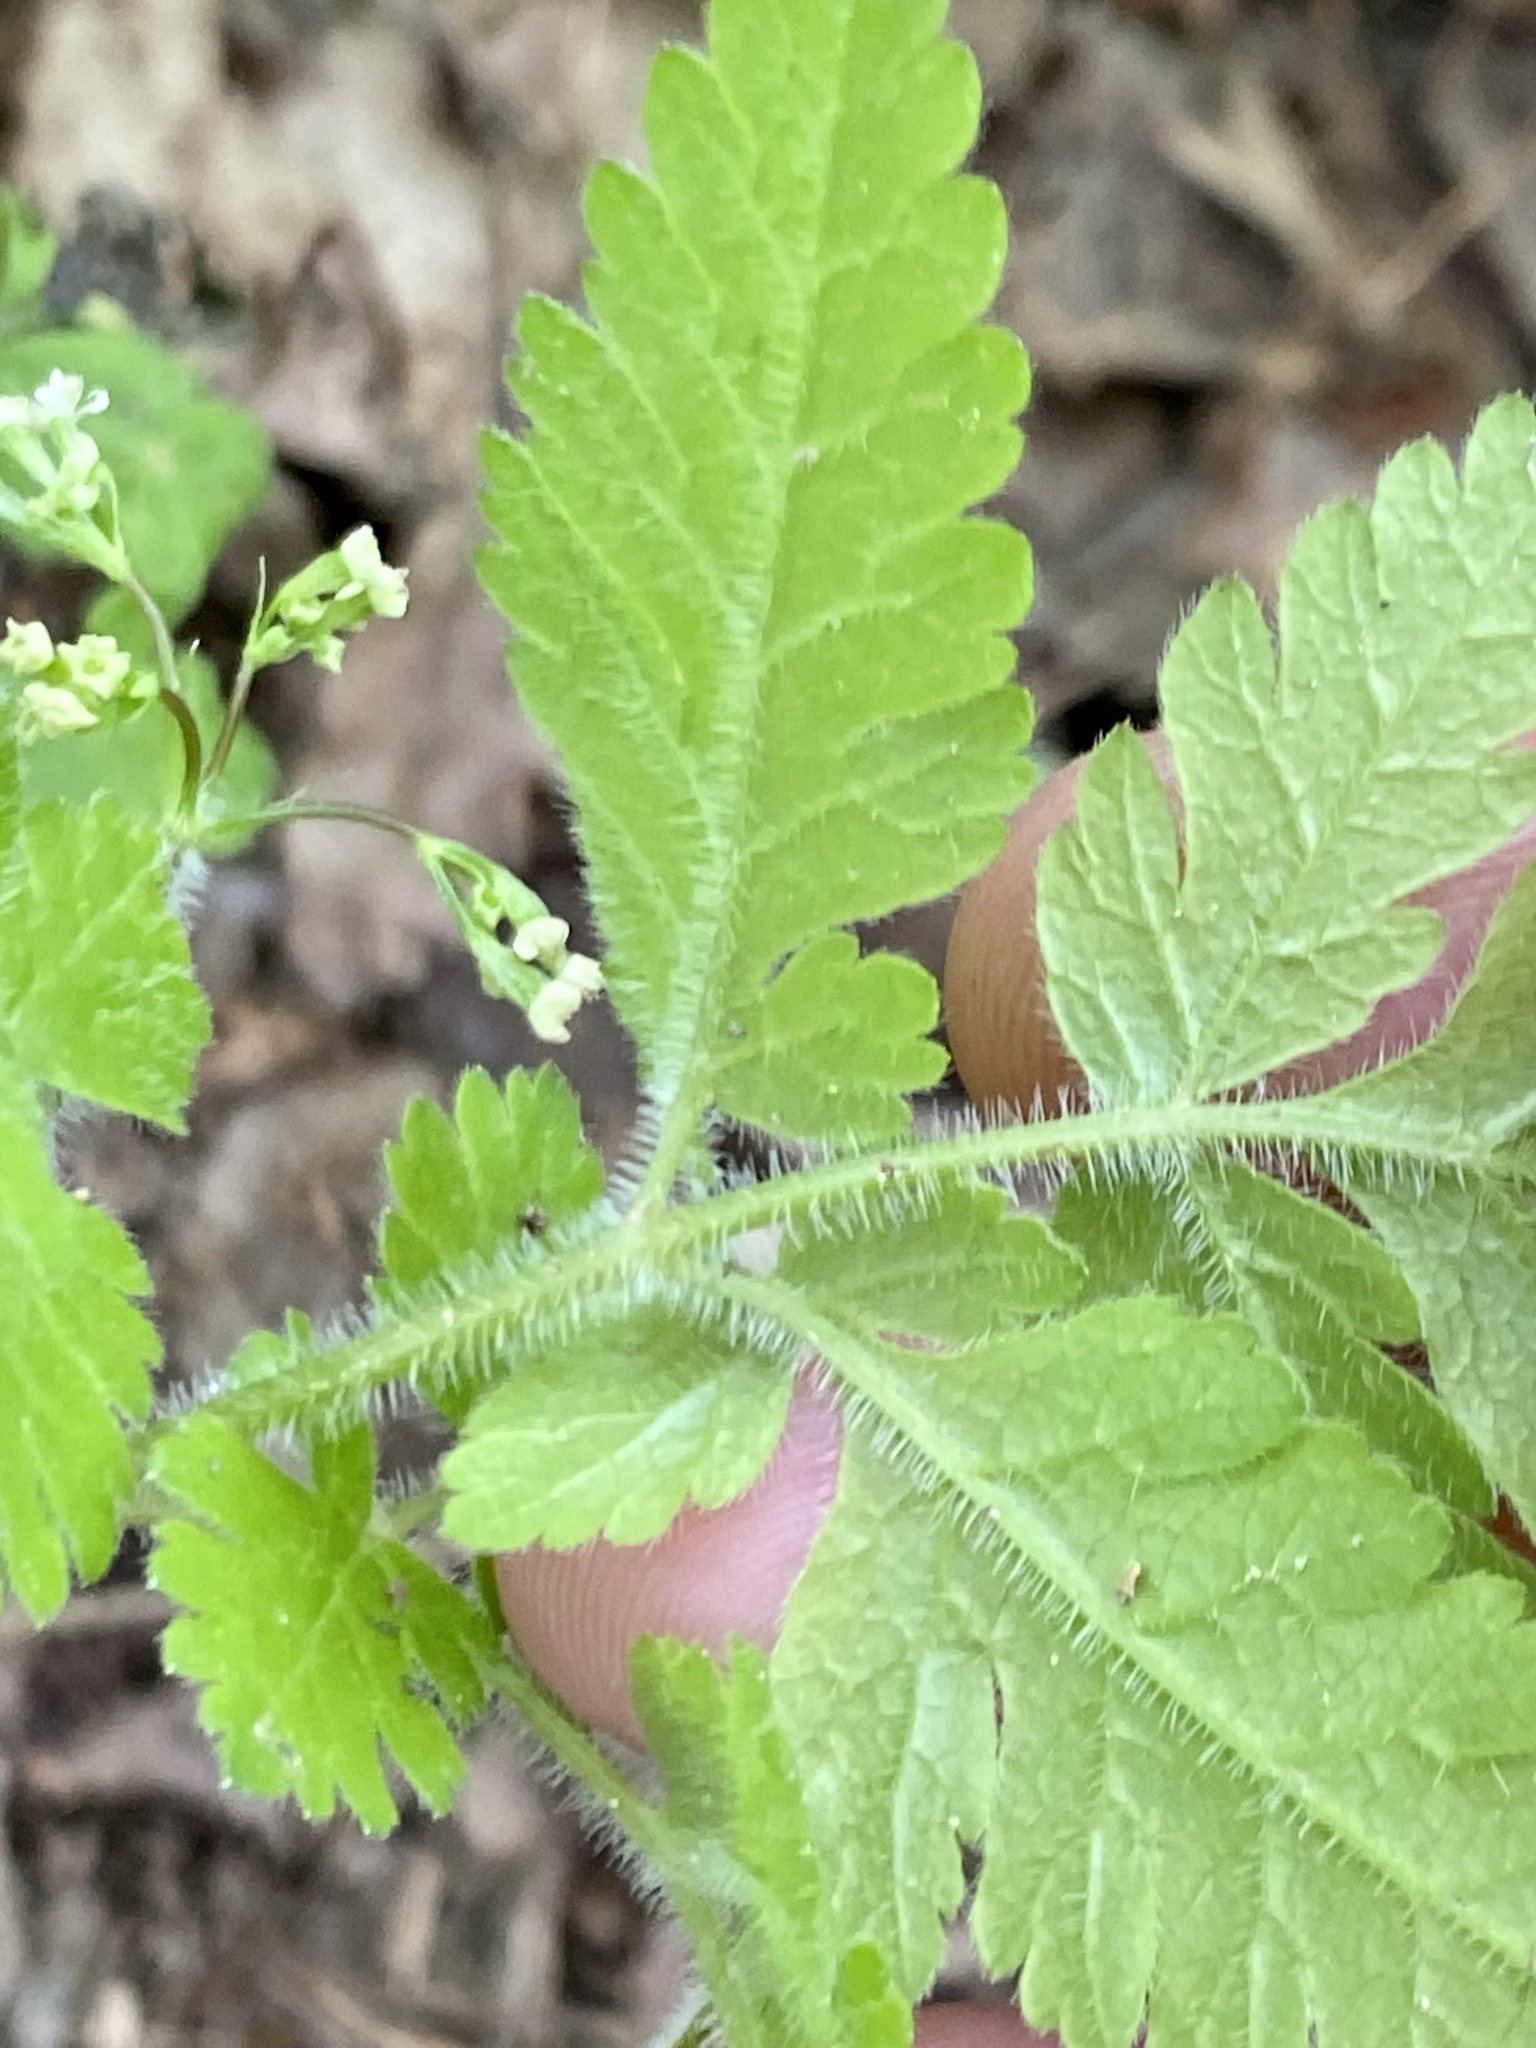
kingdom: Plantae
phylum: Tracheophyta
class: Magnoliopsida
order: Apiales
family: Apiaceae
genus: Osmorhiza
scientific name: Osmorhiza claytonii
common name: Hairy sweet cicely
